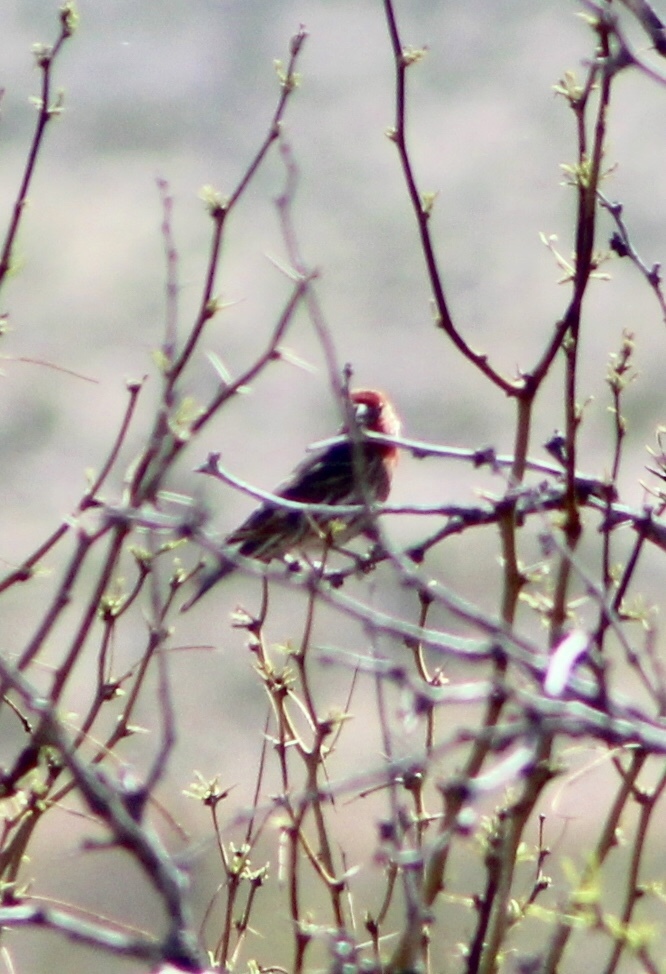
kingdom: Animalia
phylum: Chordata
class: Aves
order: Passeriformes
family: Fringillidae
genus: Haemorhous
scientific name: Haemorhous mexicanus
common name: House finch
